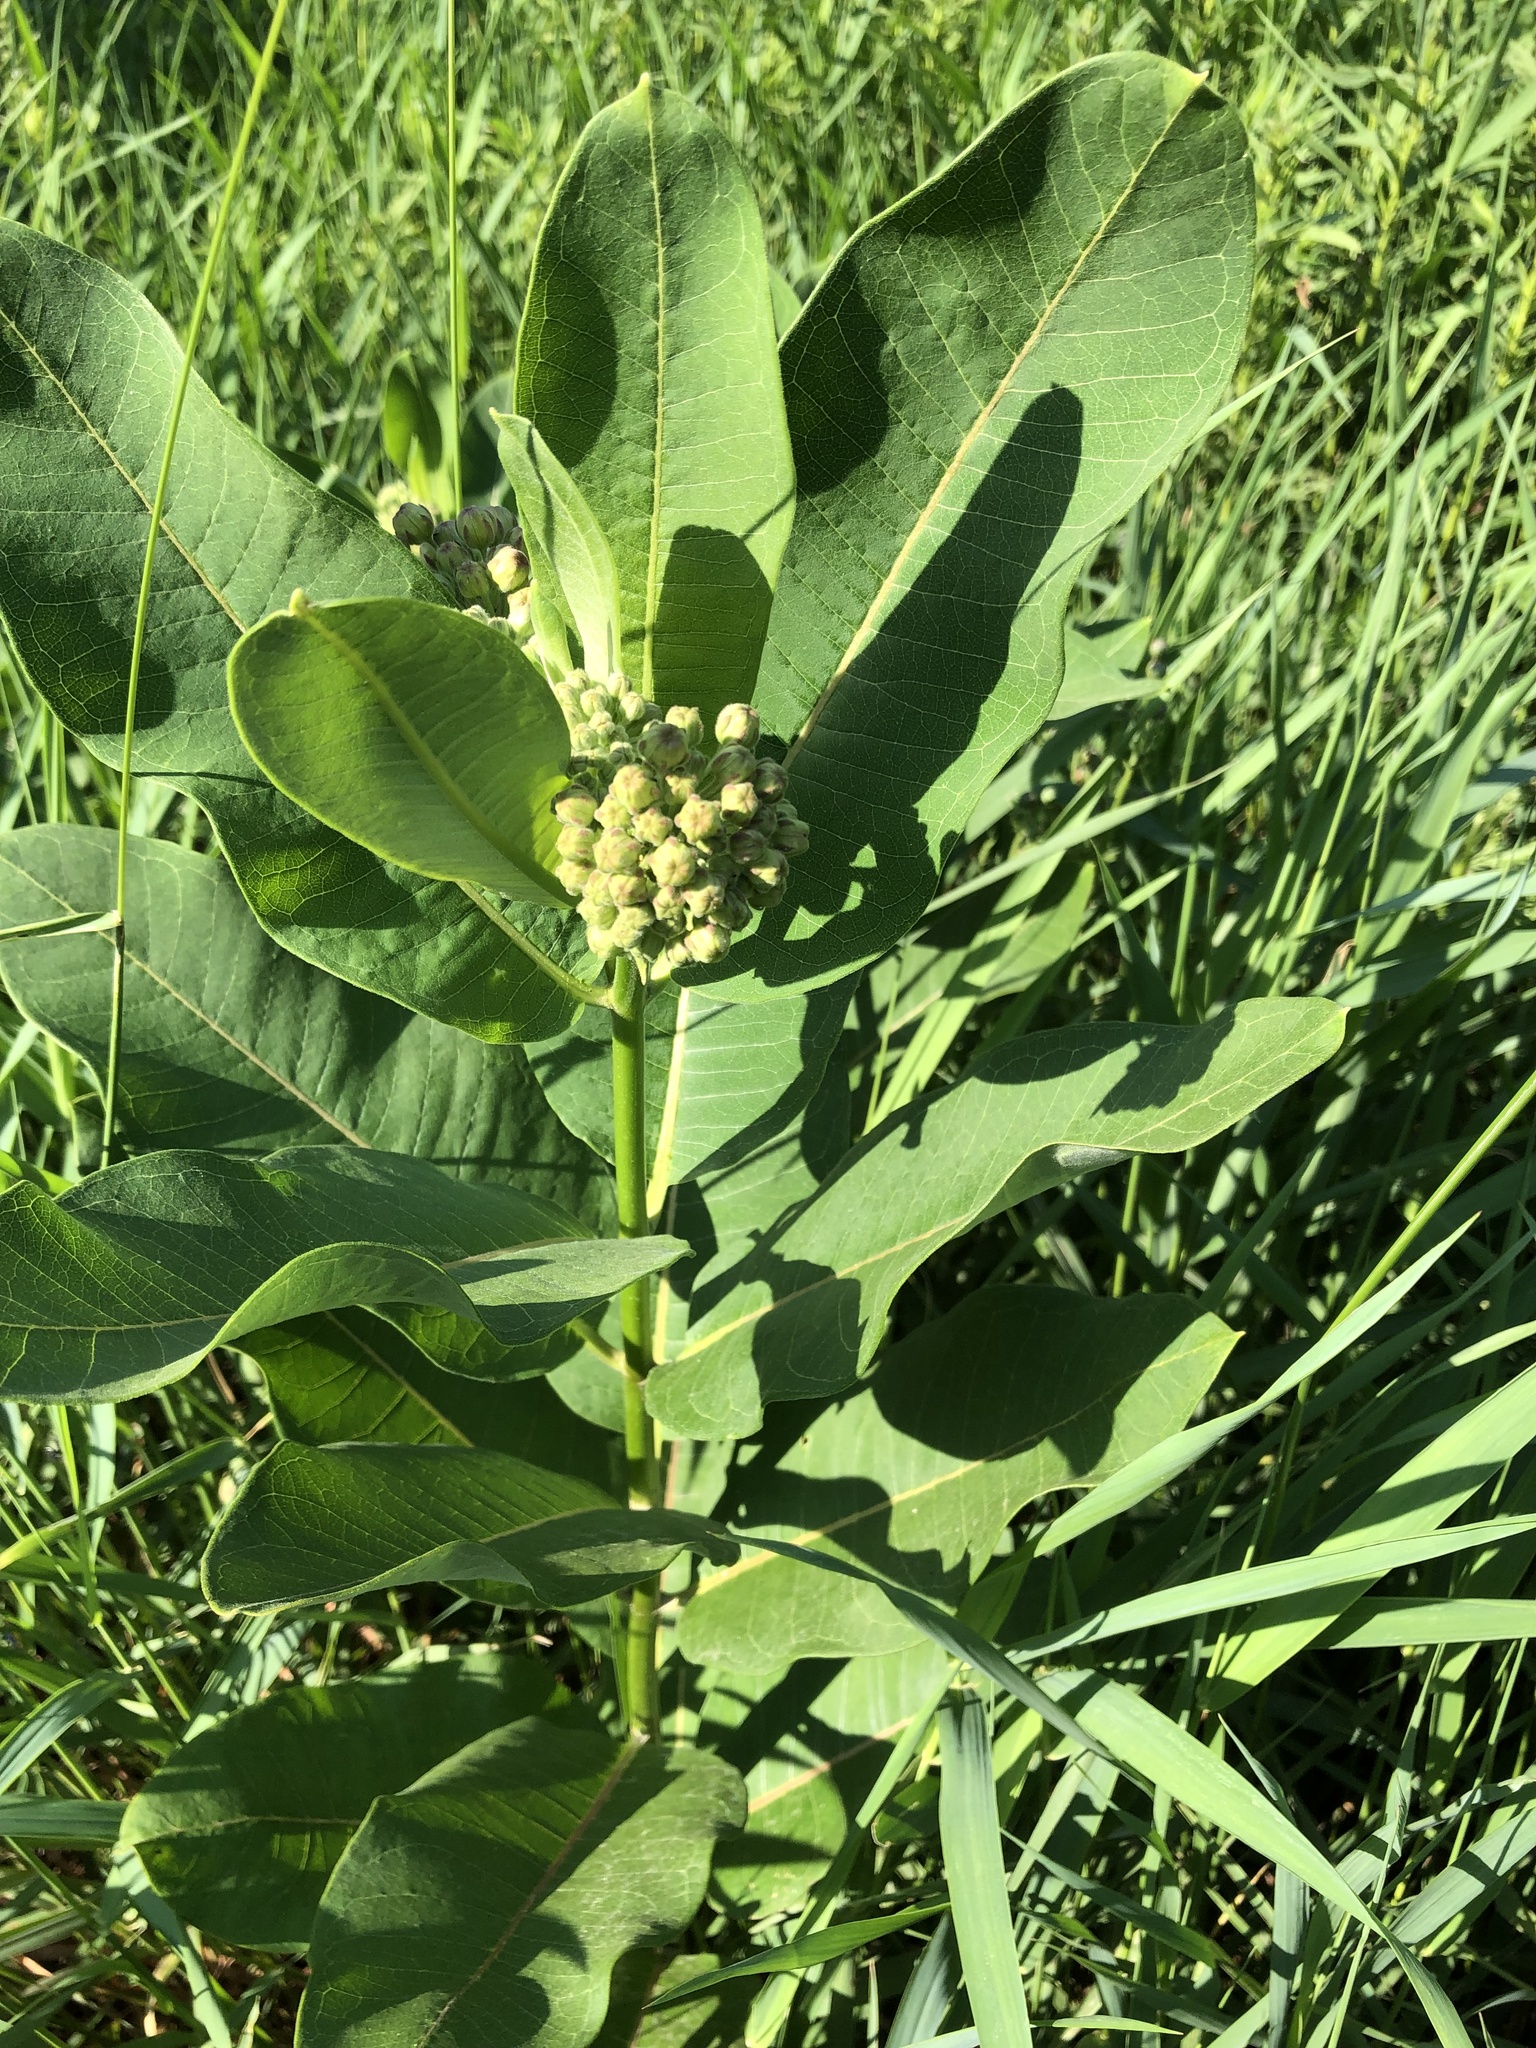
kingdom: Plantae
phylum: Tracheophyta
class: Magnoliopsida
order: Gentianales
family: Apocynaceae
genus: Asclepias
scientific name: Asclepias syriaca
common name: Common milkweed
